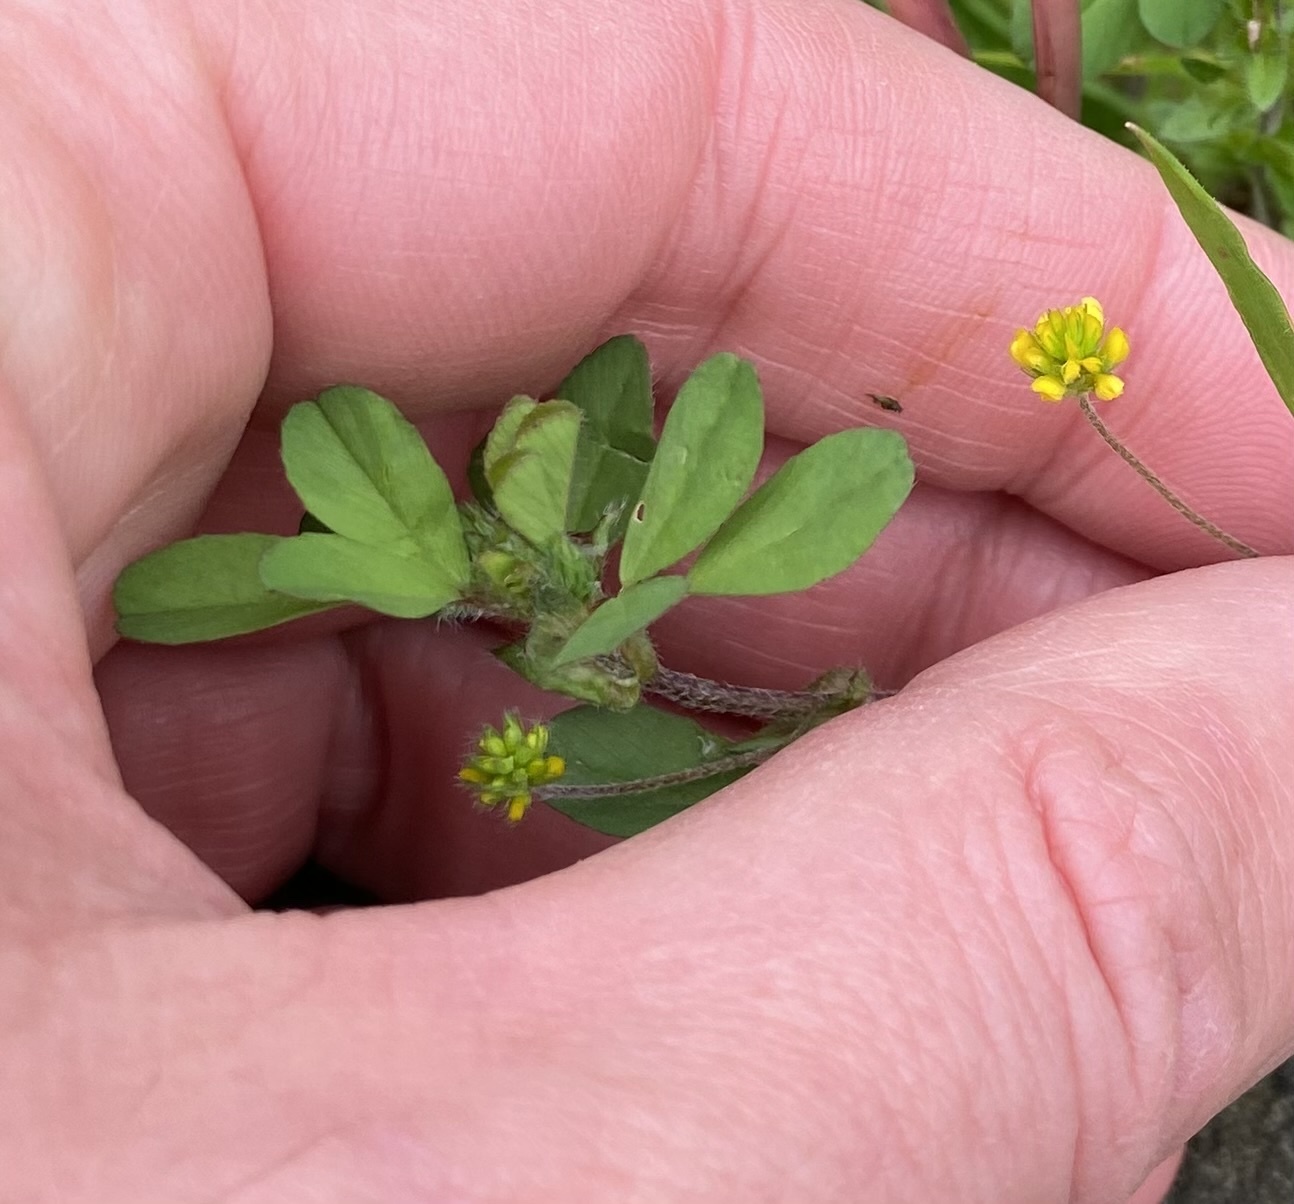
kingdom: Plantae
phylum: Tracheophyta
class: Magnoliopsida
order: Fabales
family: Fabaceae
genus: Trifolium
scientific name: Trifolium dubium
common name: Suckling clover
